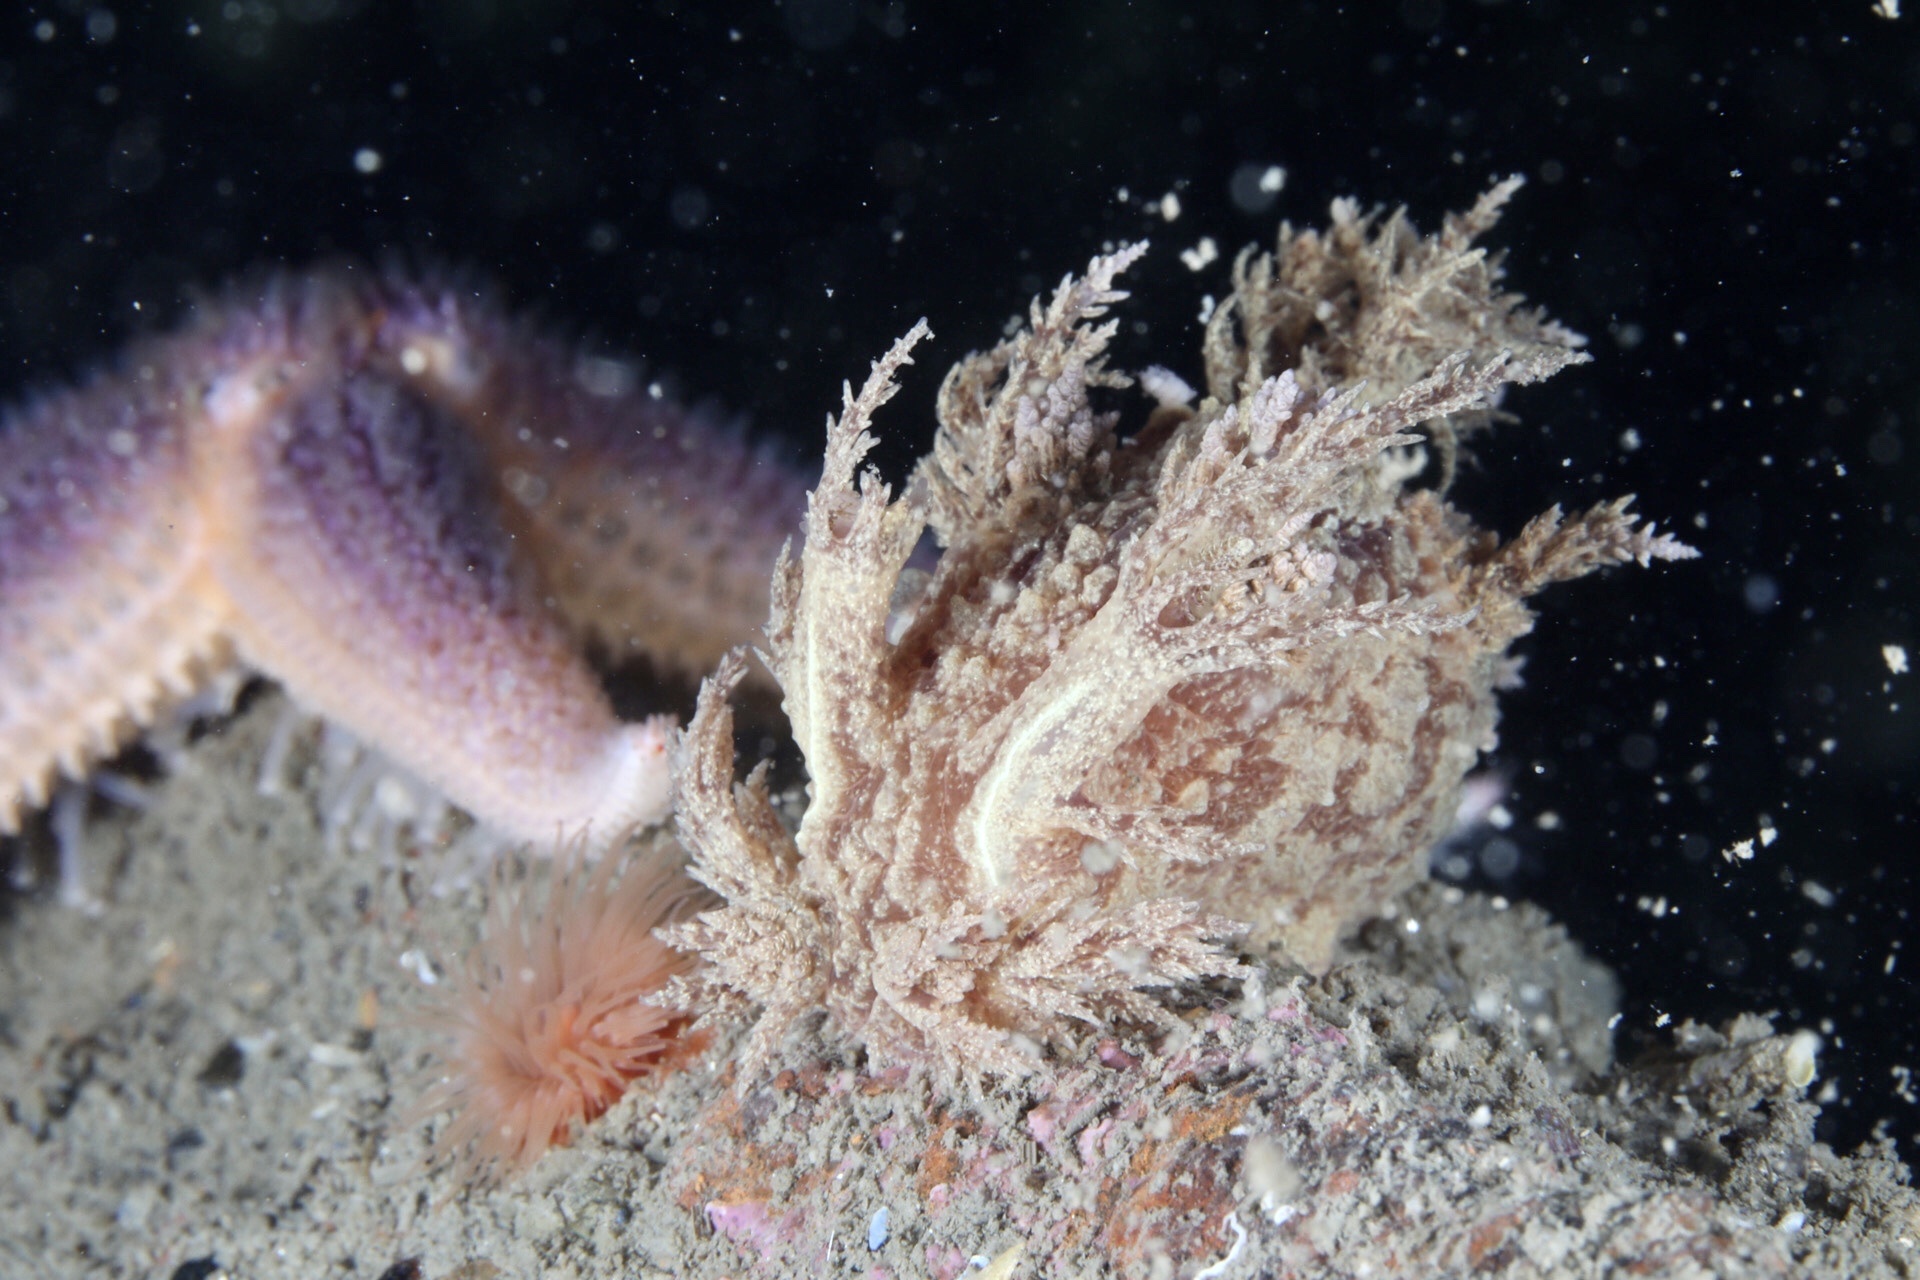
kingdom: Animalia
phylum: Mollusca
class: Gastropoda
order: Nudibranchia
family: Dendronotidae
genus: Dendronotus
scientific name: Dendronotus europaeus
